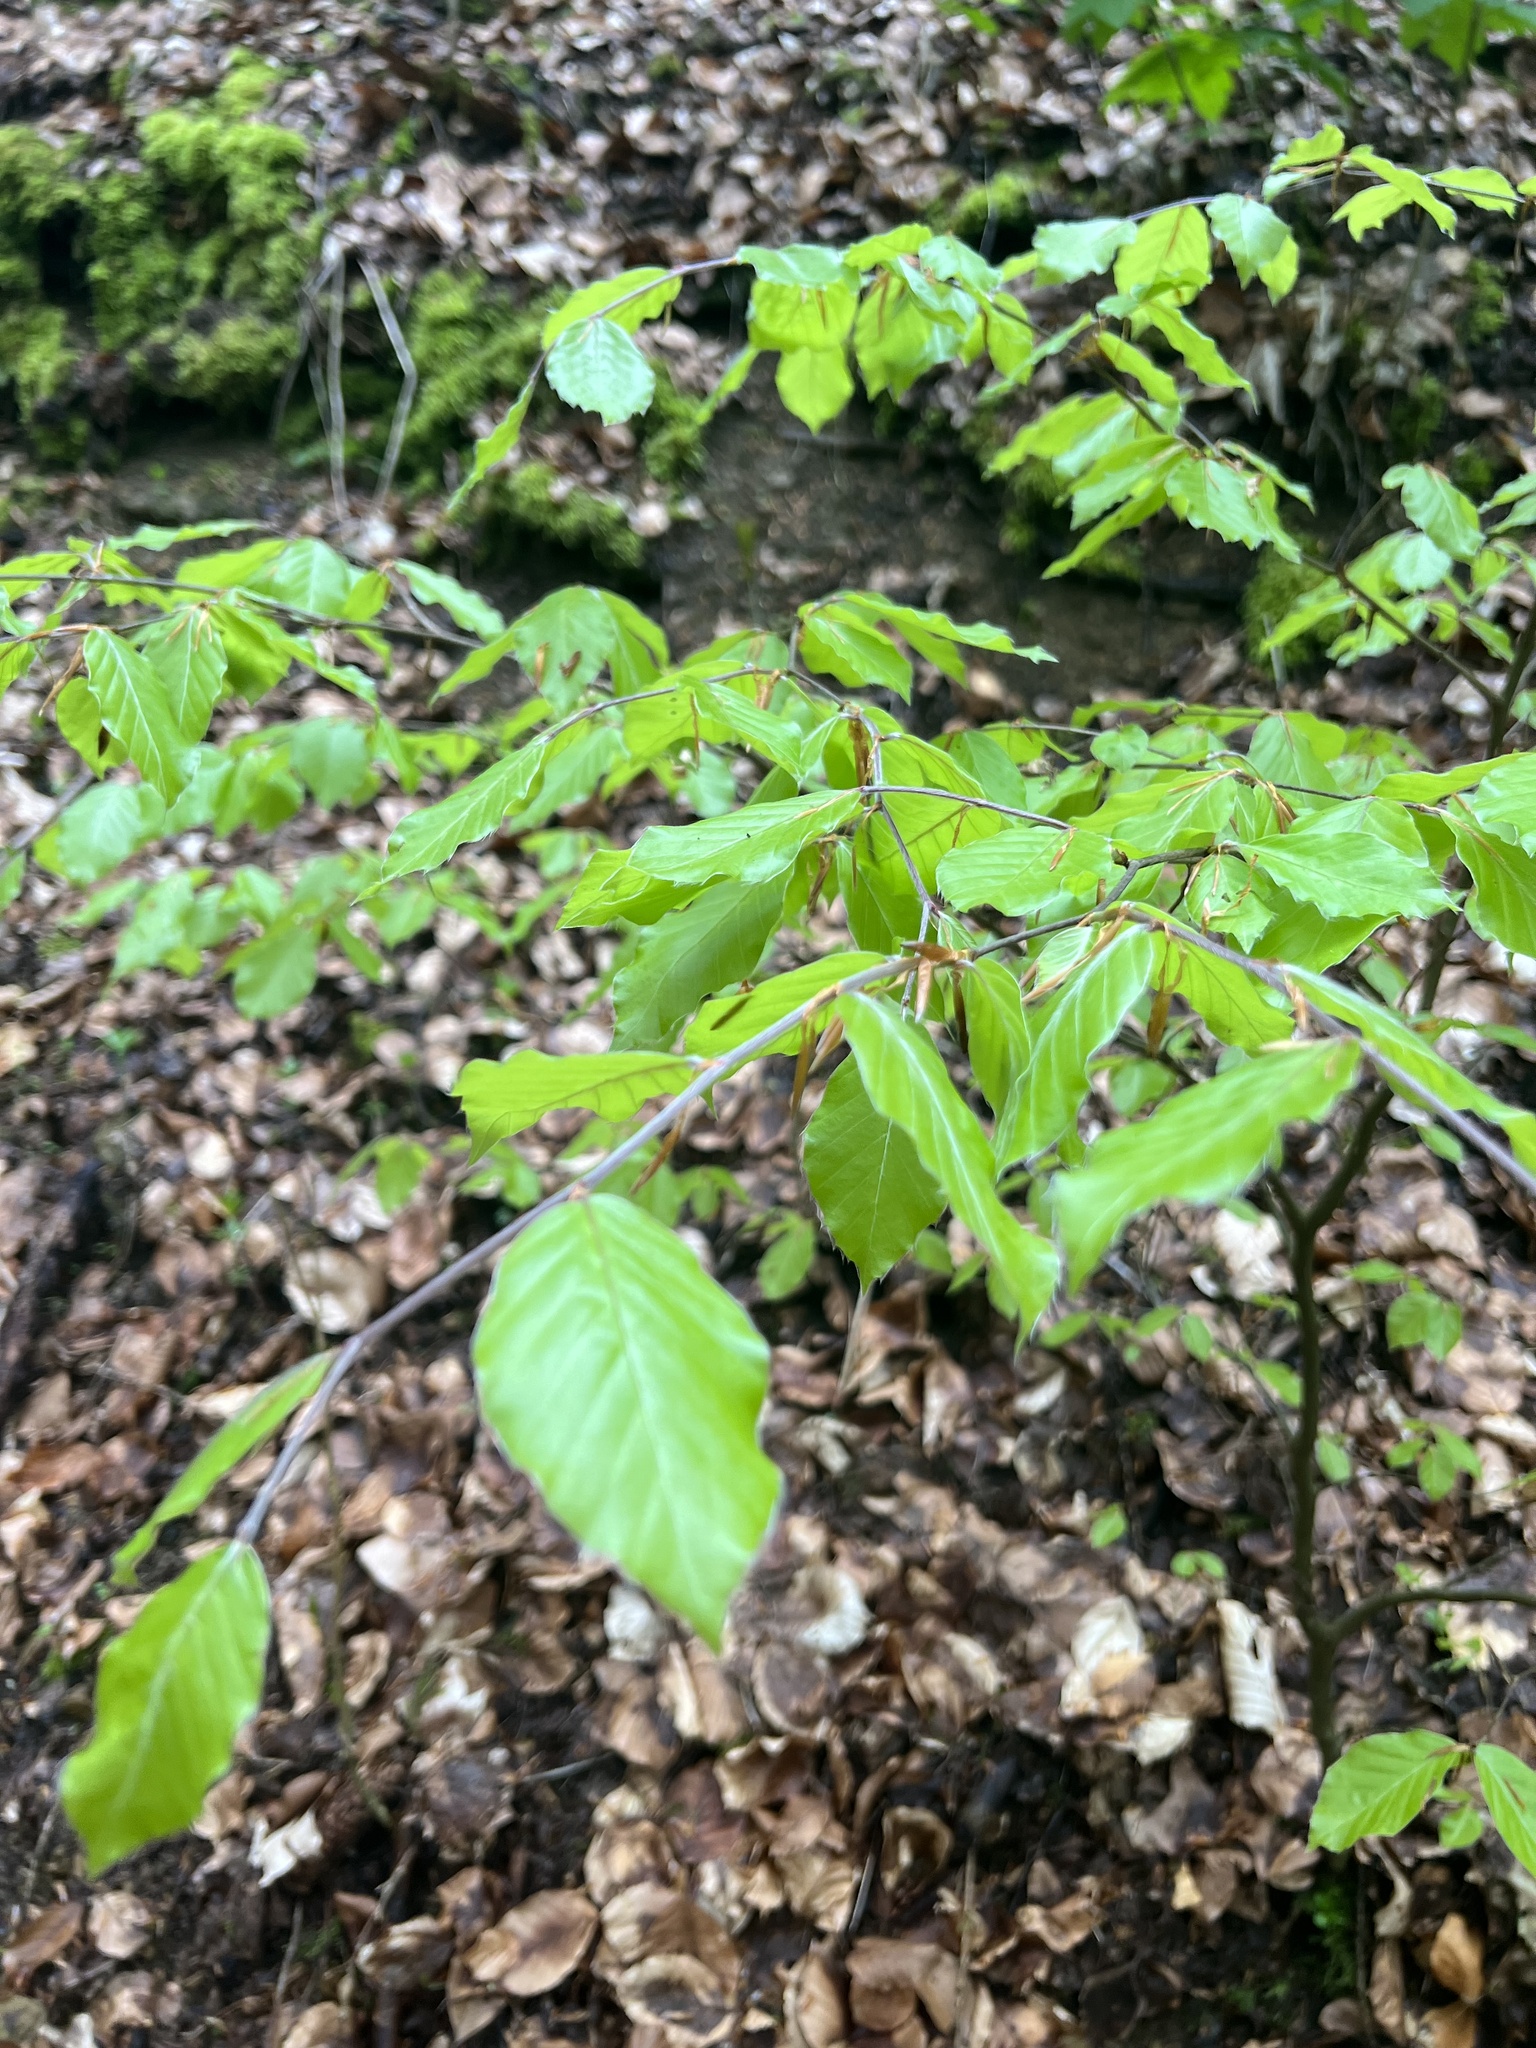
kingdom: Plantae
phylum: Tracheophyta
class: Magnoliopsida
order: Fagales
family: Fagaceae
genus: Fagus
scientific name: Fagus sylvatica
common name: Beech
